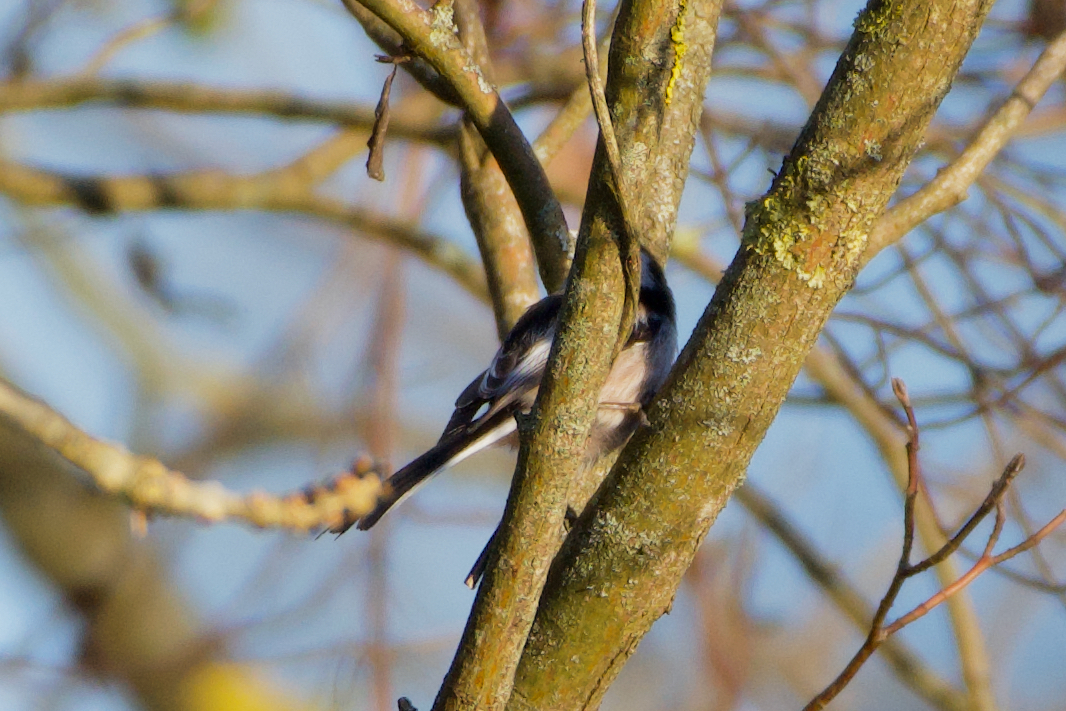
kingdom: Animalia
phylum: Chordata
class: Aves
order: Passeriformes
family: Aegithalidae
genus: Aegithalos
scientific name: Aegithalos caudatus
